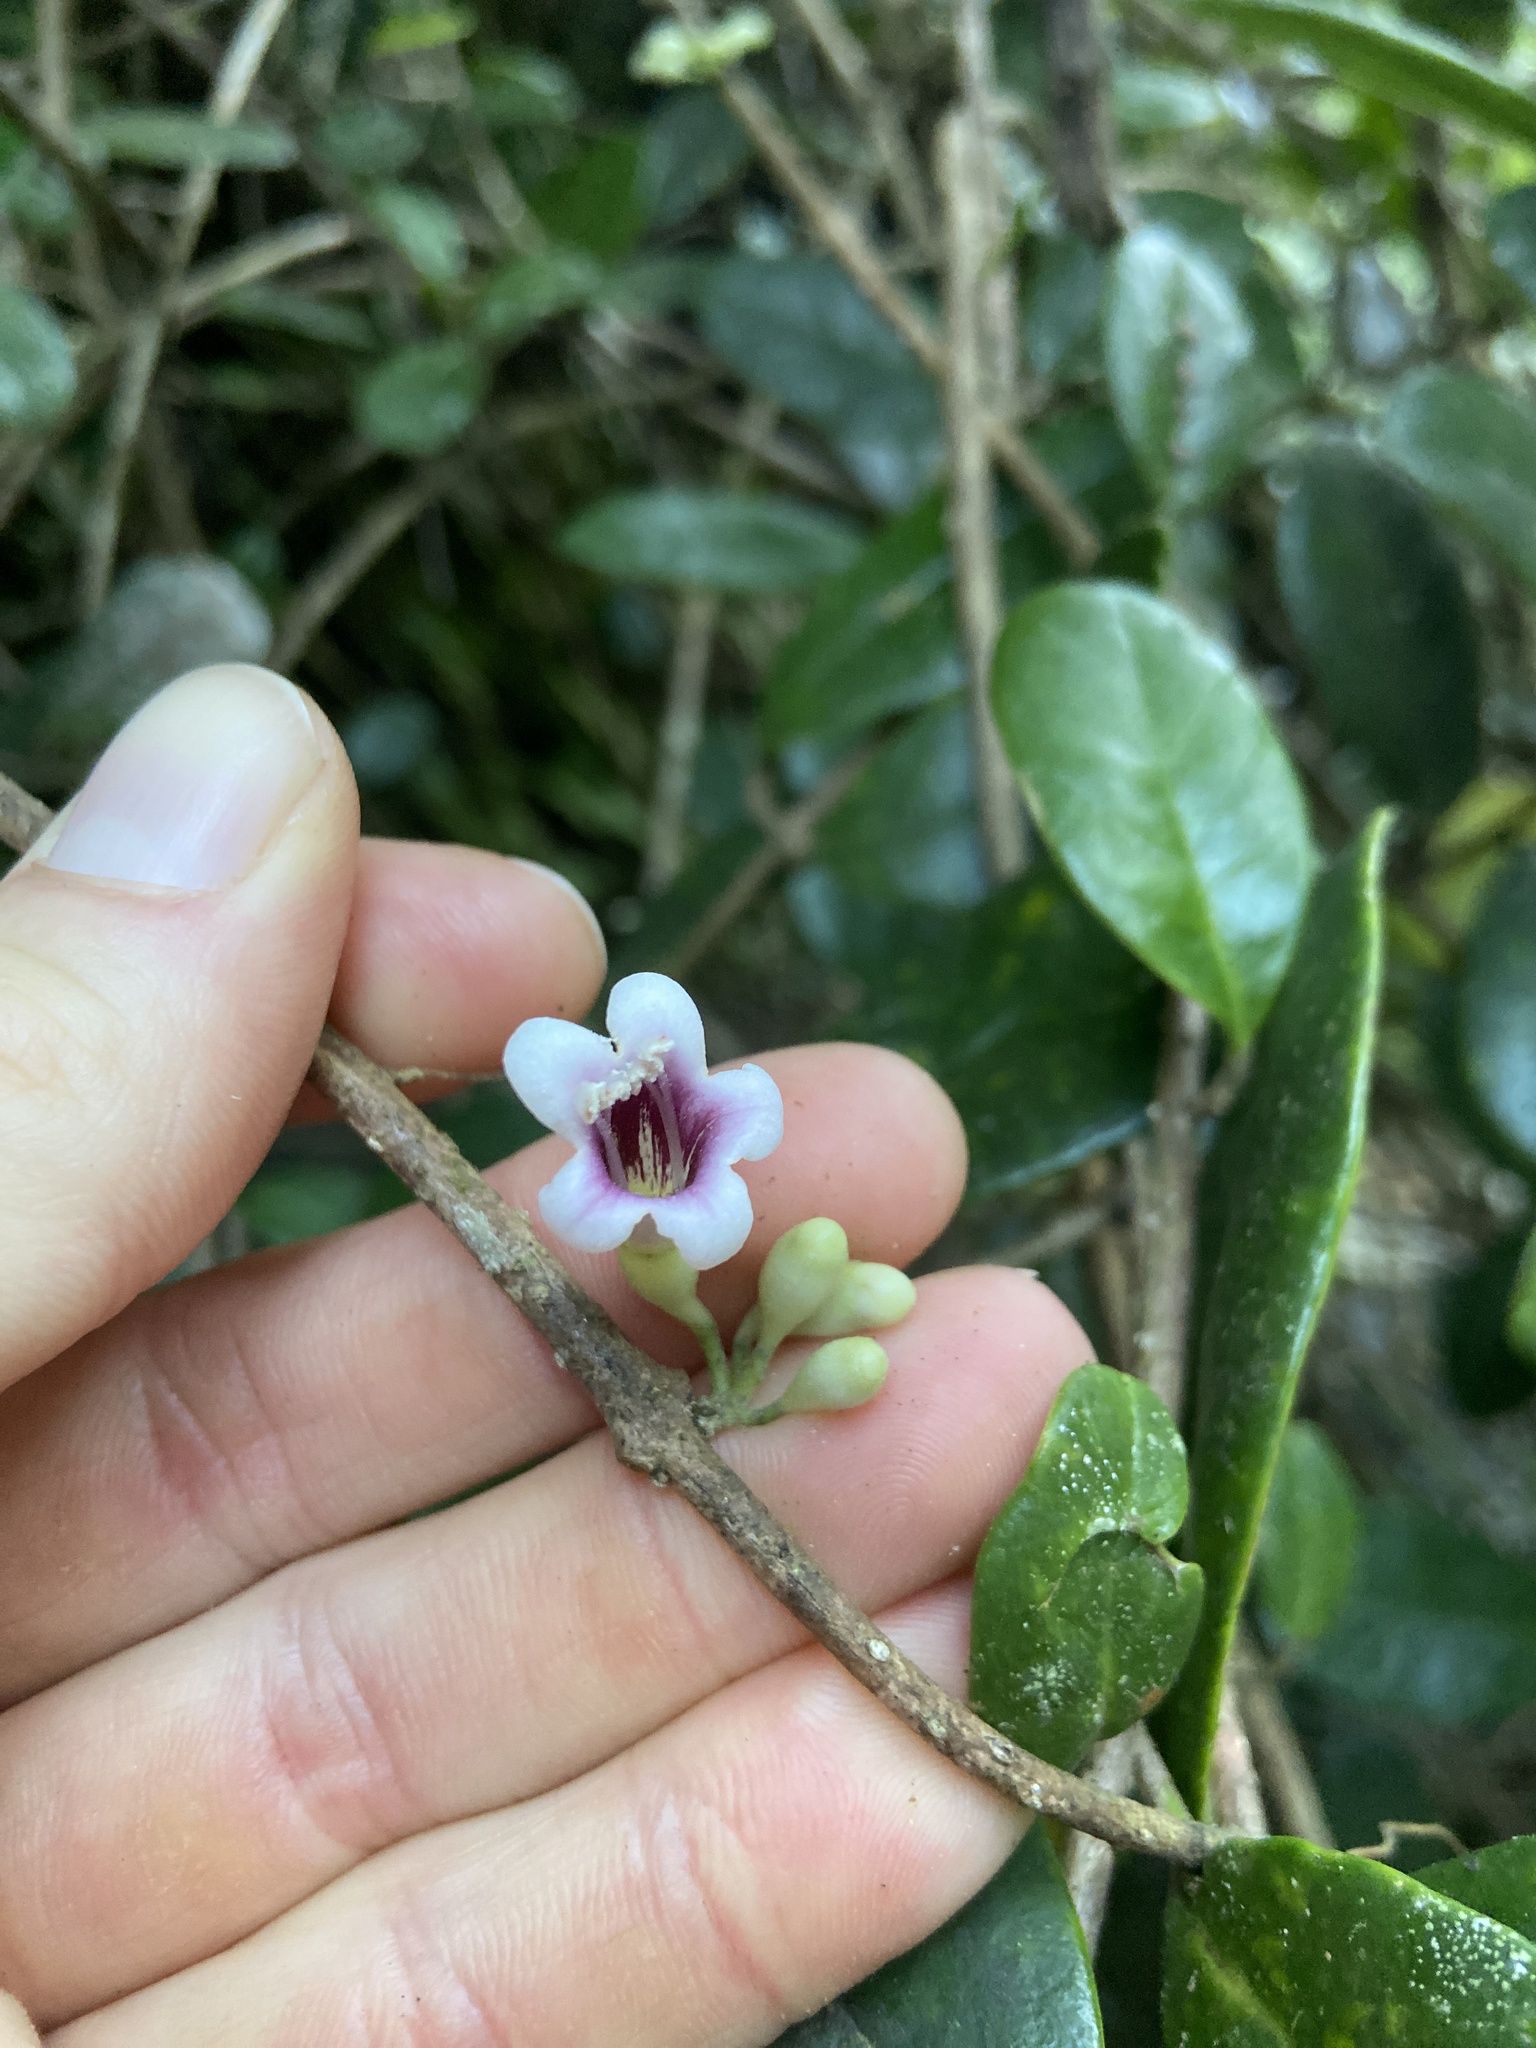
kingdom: Plantae
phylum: Tracheophyta
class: Magnoliopsida
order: Lamiales
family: Schlegeliaceae
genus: Schlegelia
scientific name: Schlegelia brachyantha
